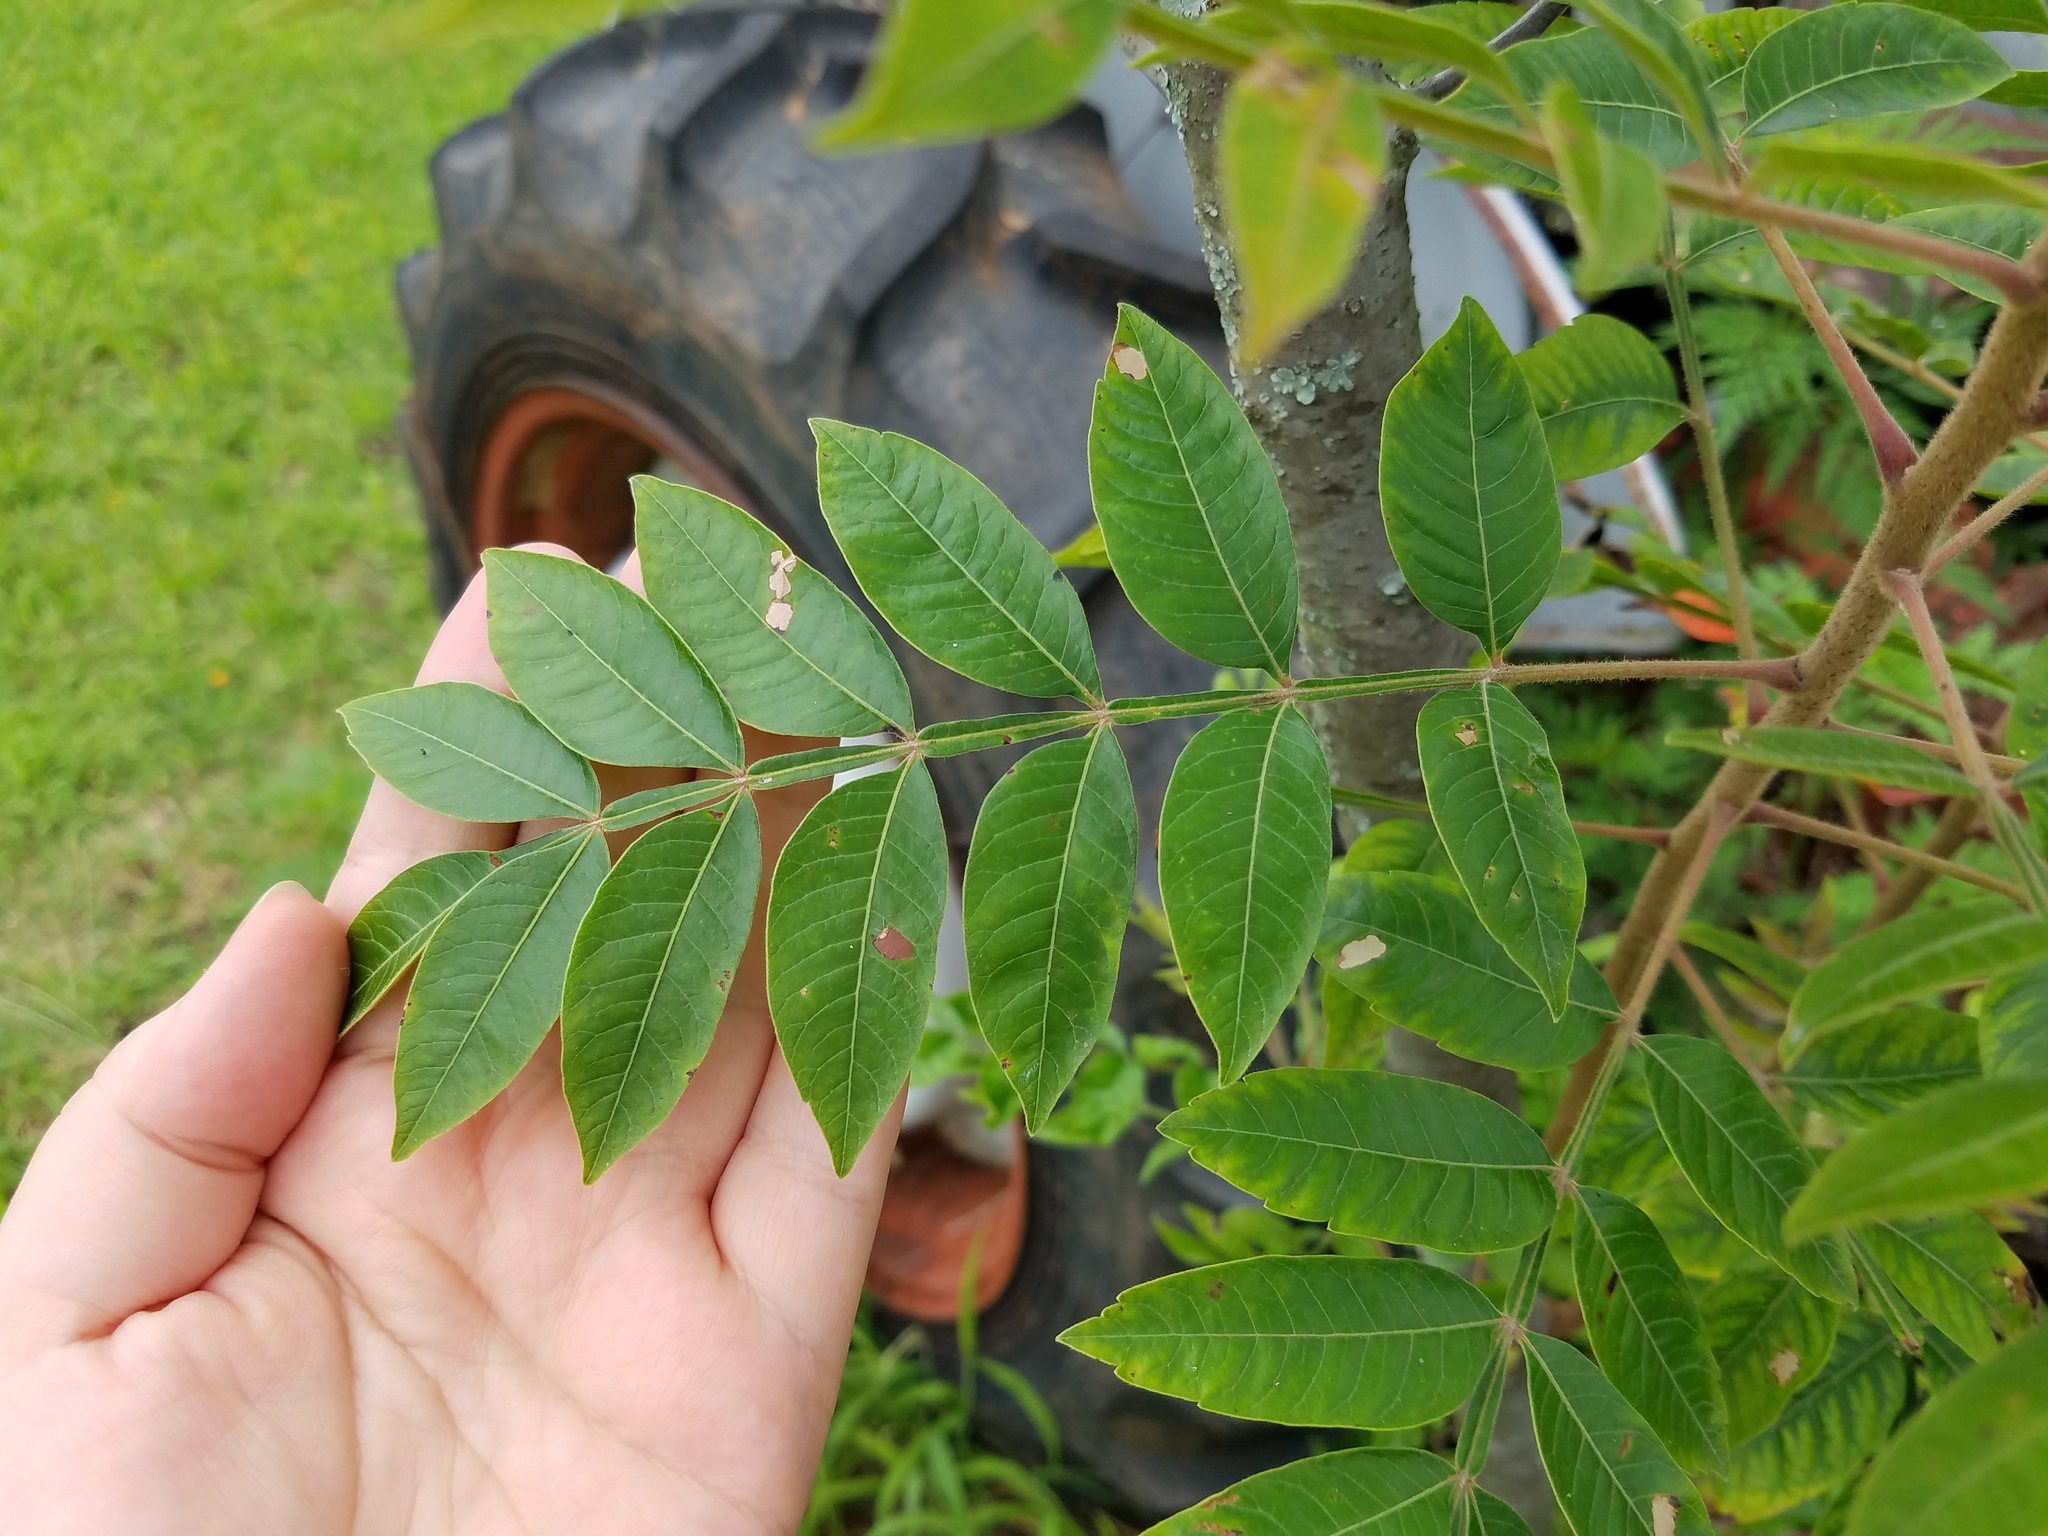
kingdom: Plantae
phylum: Tracheophyta
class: Magnoliopsida
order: Sapindales
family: Anacardiaceae
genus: Rhus
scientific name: Rhus copallina
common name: Shining sumac
